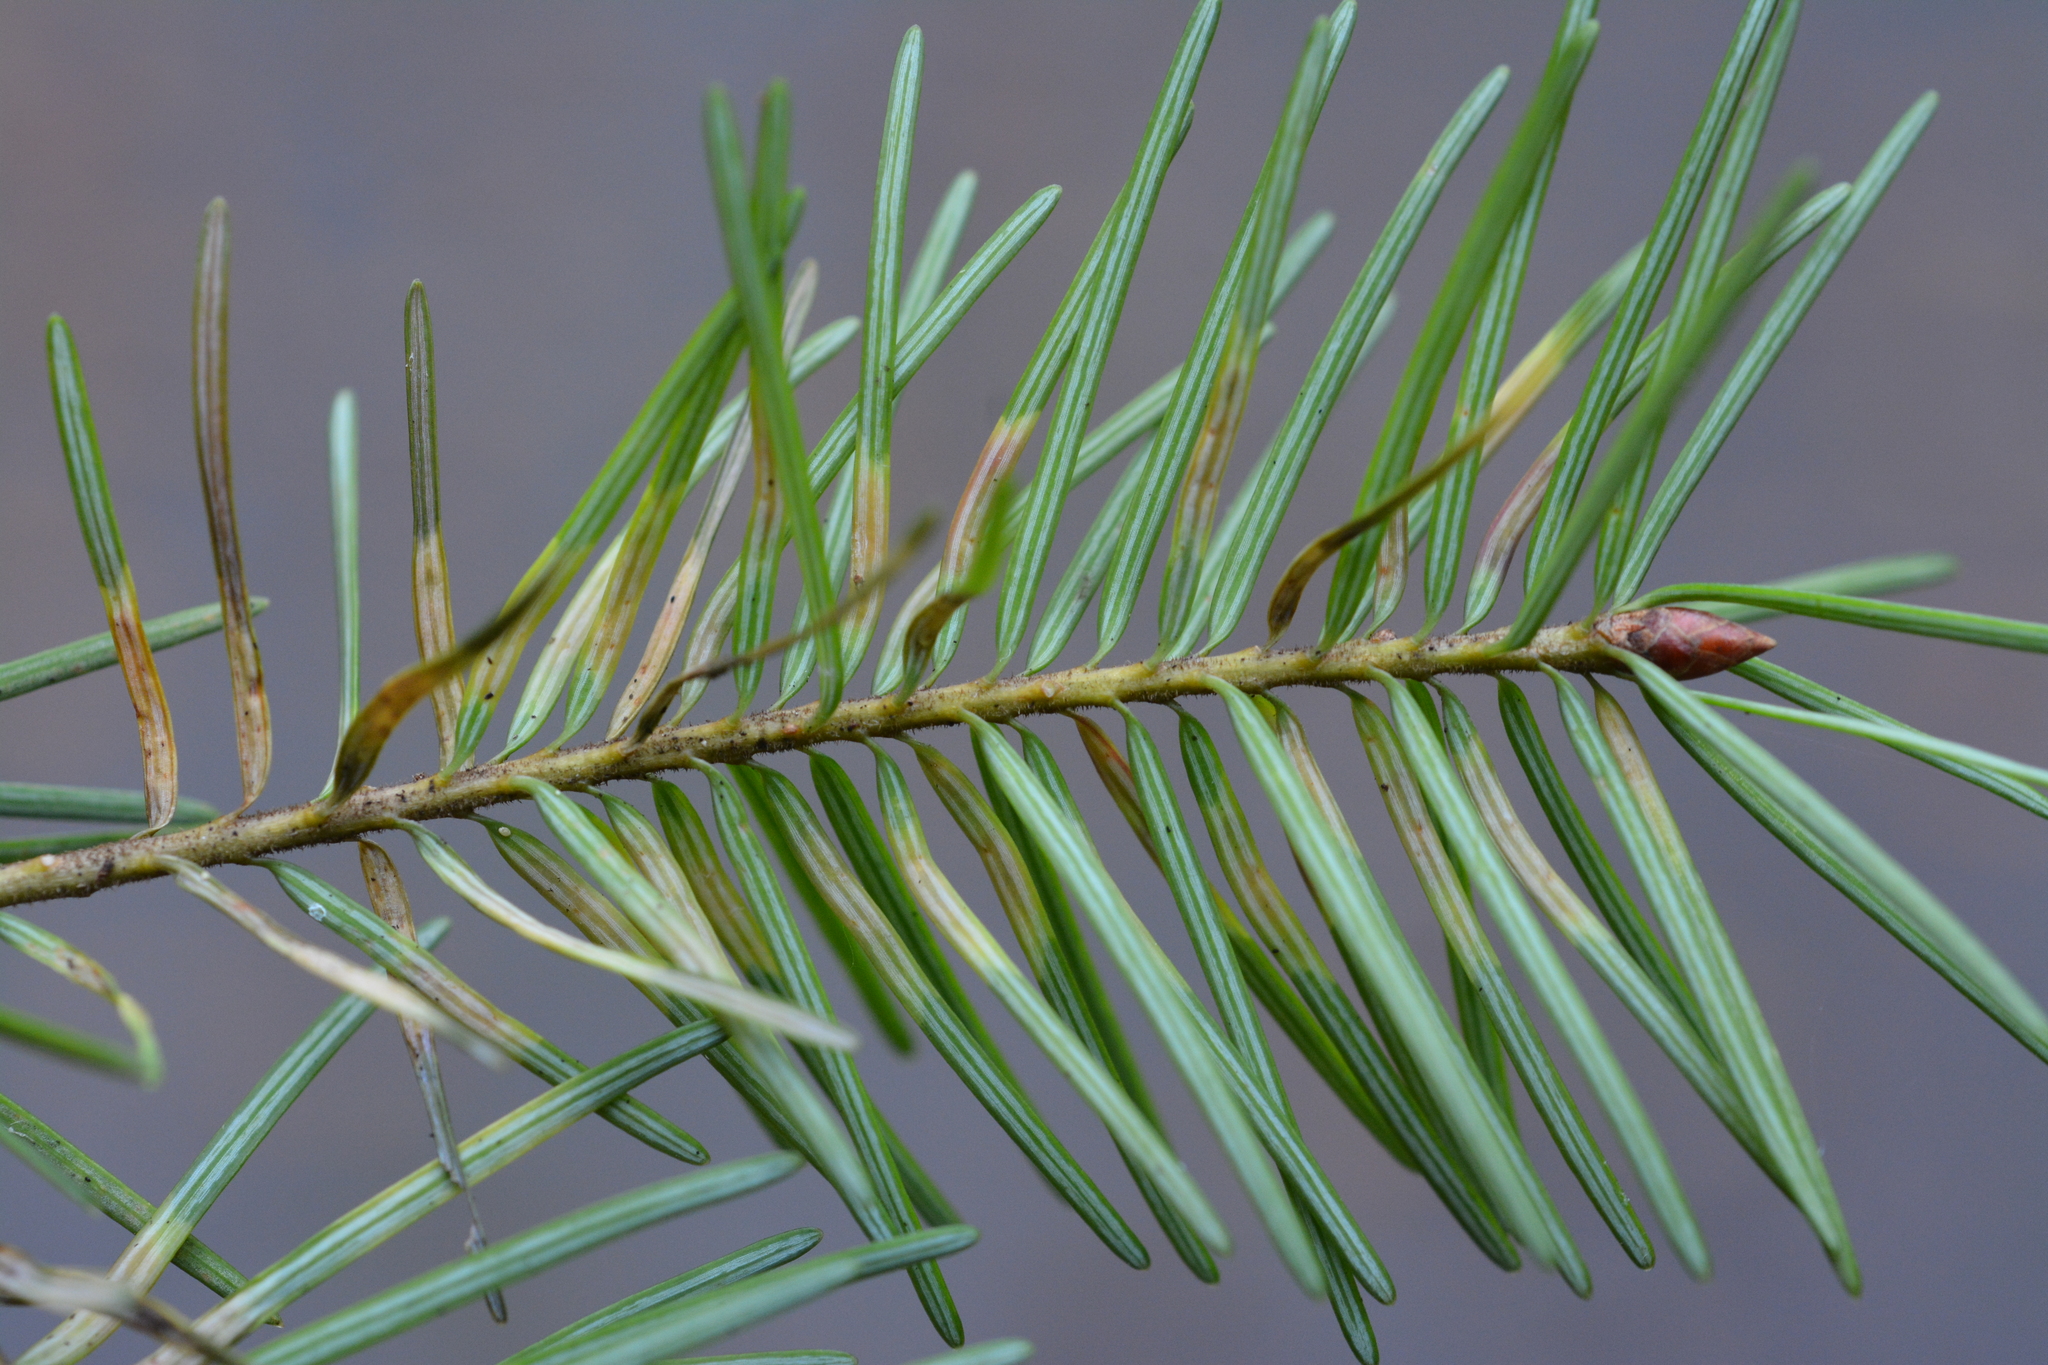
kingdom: Animalia
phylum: Arthropoda
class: Insecta
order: Diptera
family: Cecidomyiidae
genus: Contarinia
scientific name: Contarinia pseudotsugae
